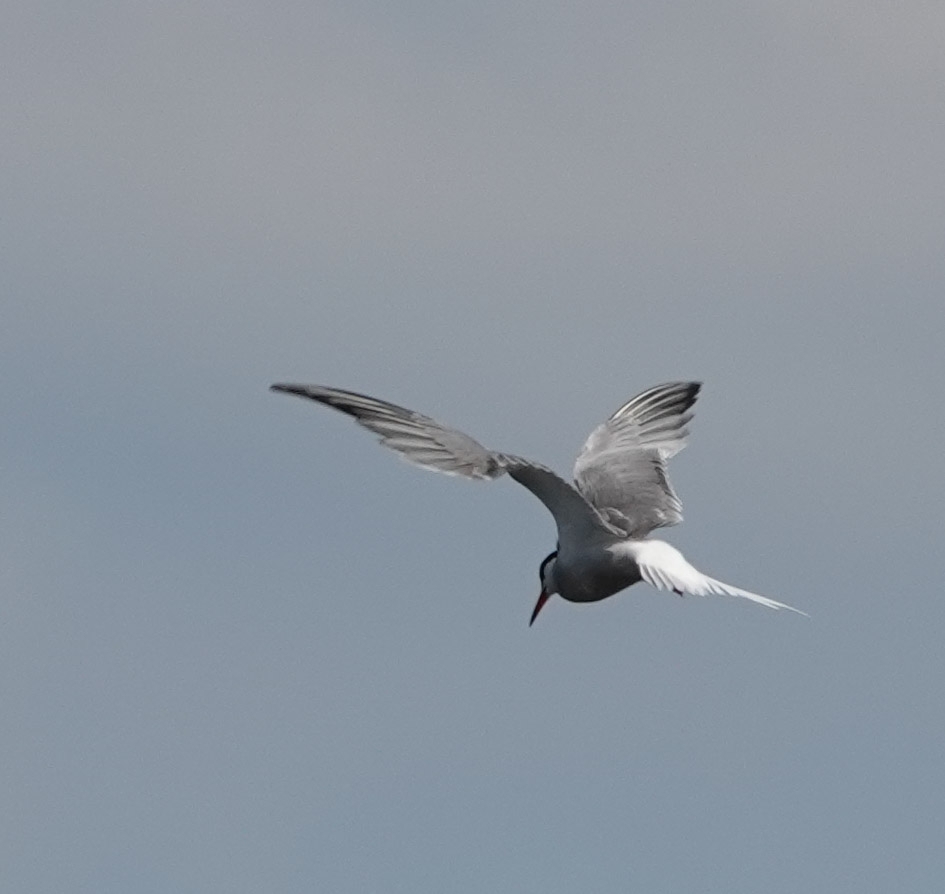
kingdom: Animalia
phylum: Chordata
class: Aves
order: Charadriiformes
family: Laridae
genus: Sterna
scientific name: Sterna hirundo
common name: Common tern
